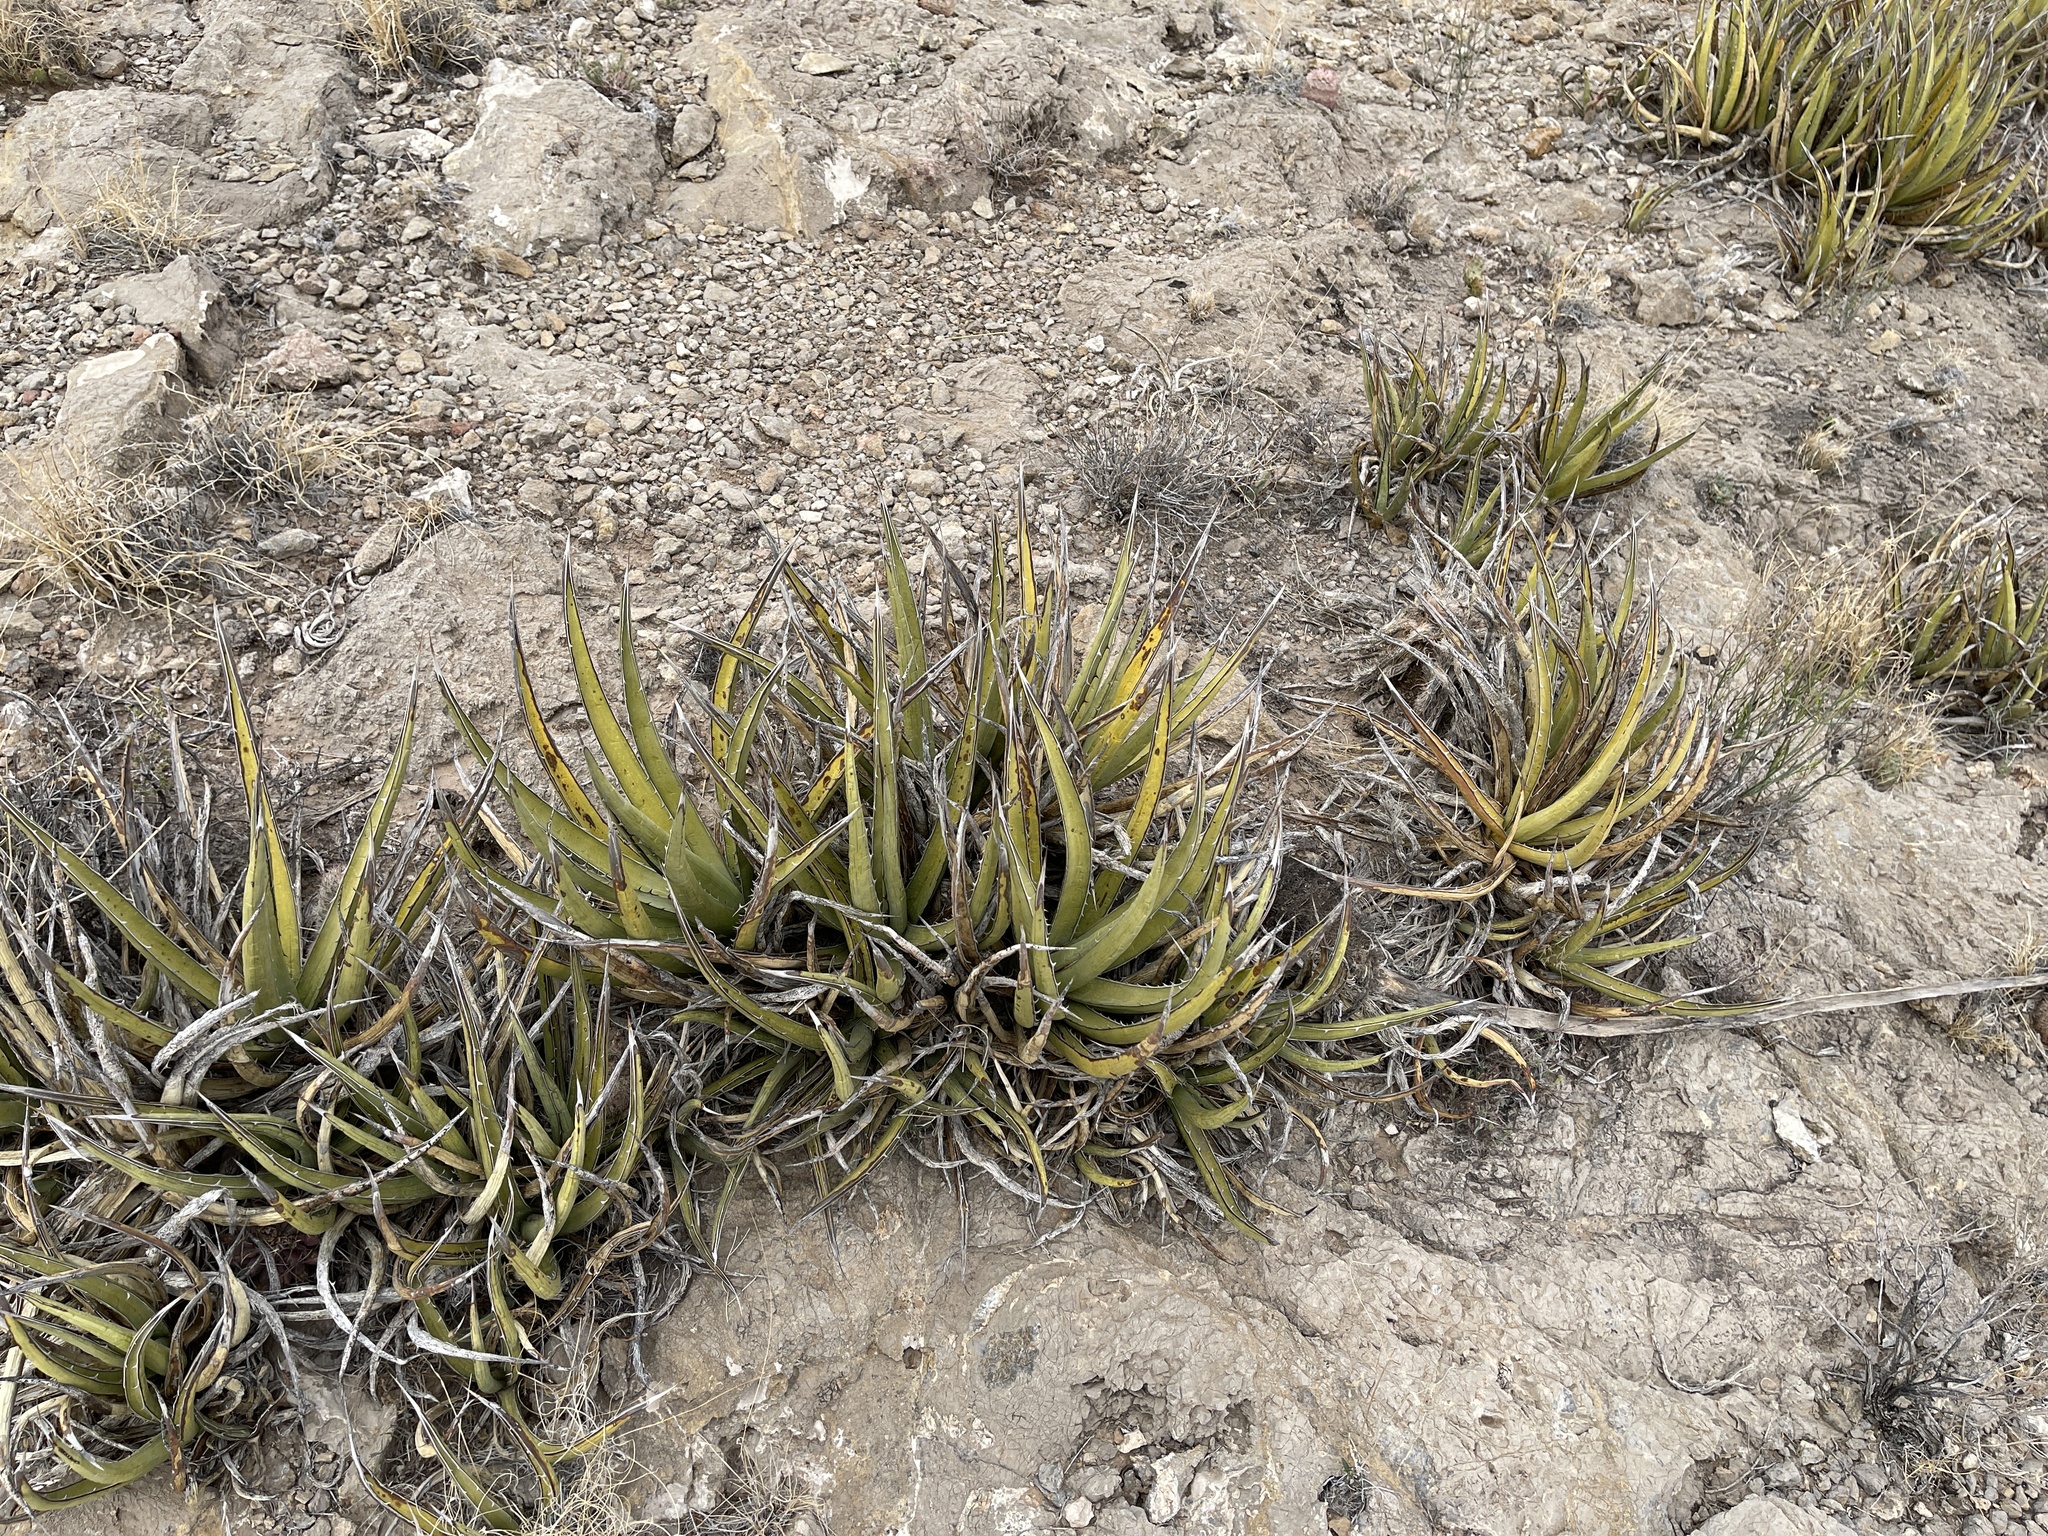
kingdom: Plantae
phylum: Tracheophyta
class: Liliopsida
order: Asparagales
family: Asparagaceae
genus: Agave
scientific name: Agave lechuguilla
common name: Lecheguilla agave
